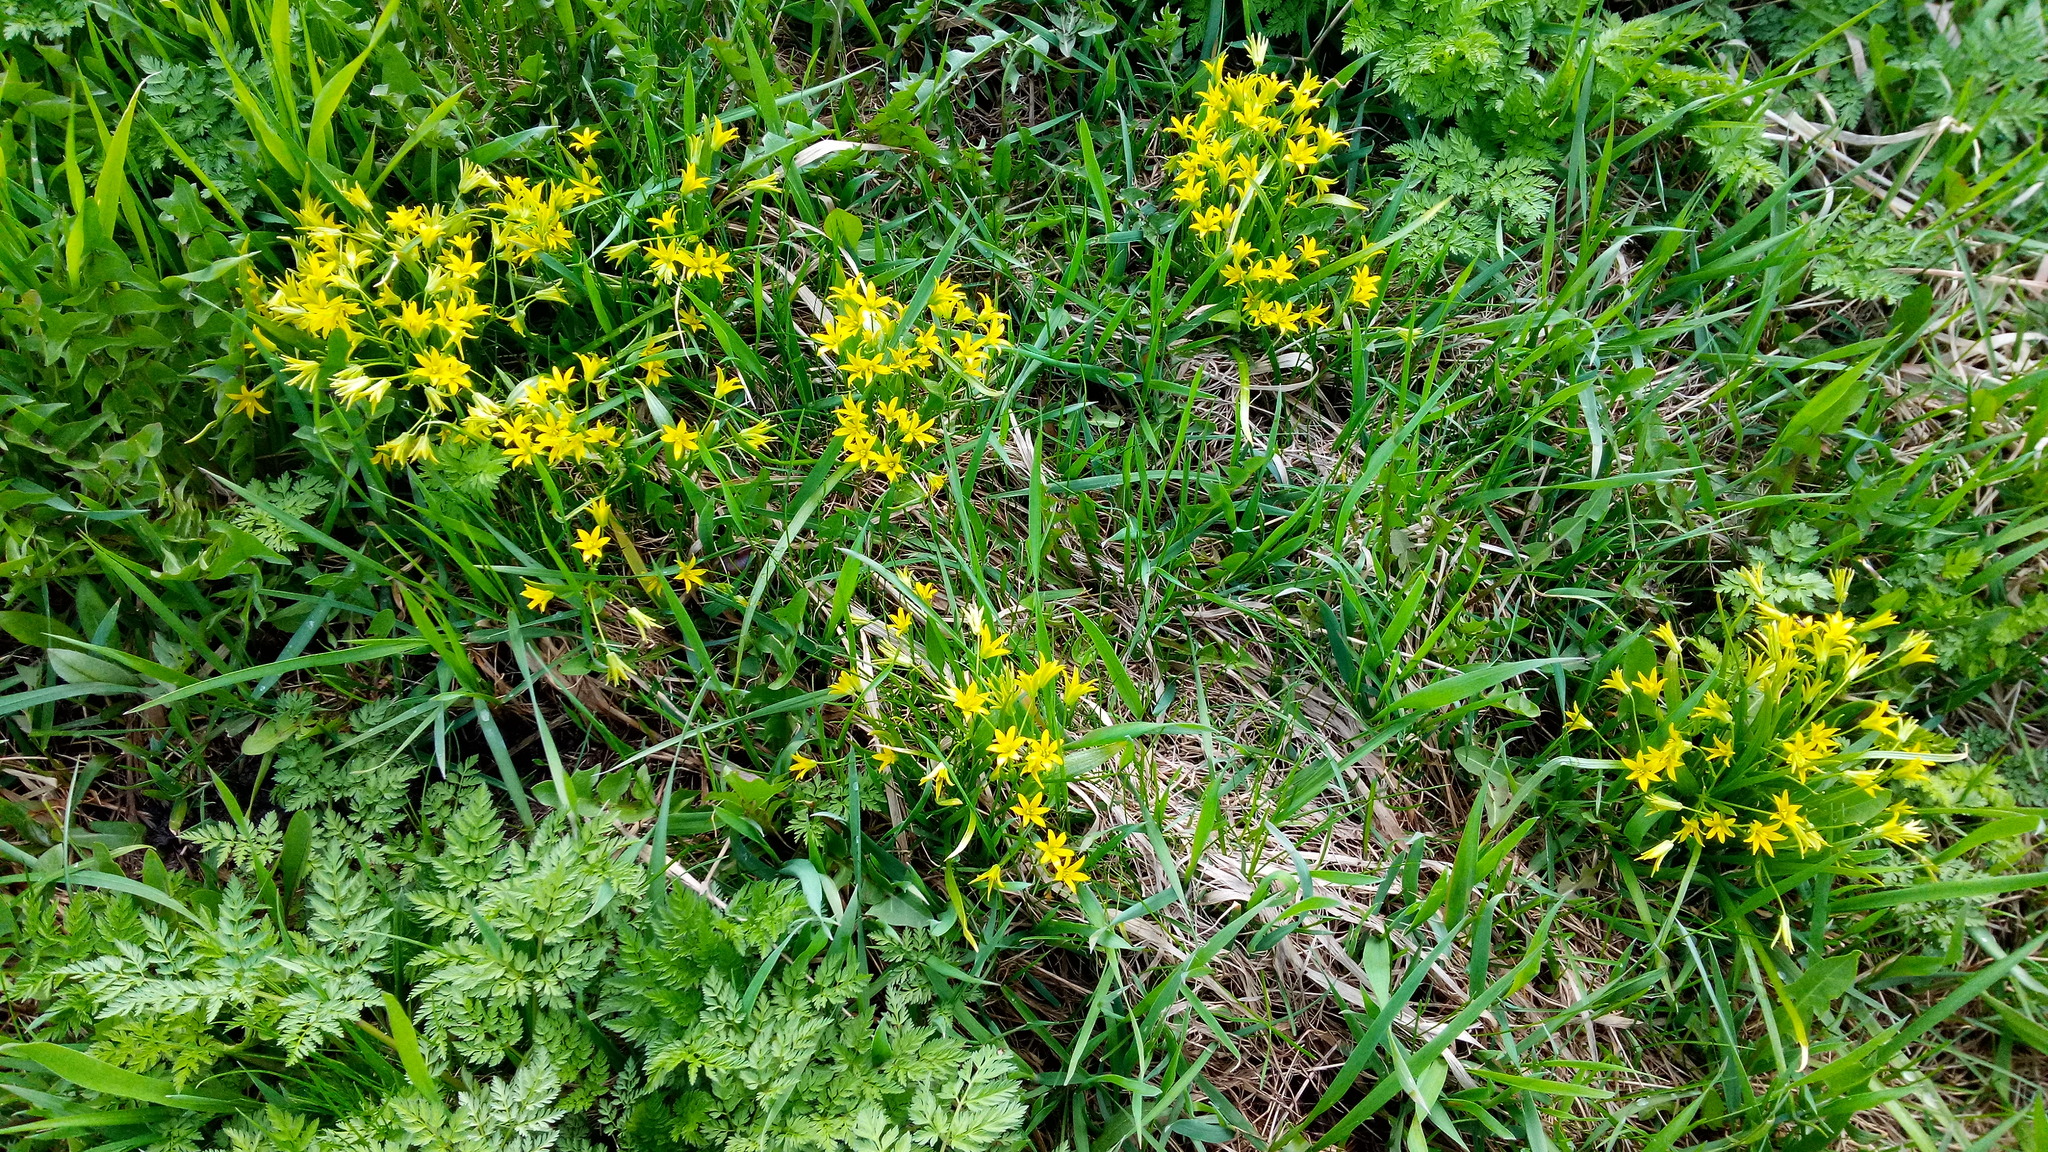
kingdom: Plantae
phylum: Tracheophyta
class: Liliopsida
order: Liliales
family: Liliaceae
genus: Gagea
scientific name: Gagea minima
